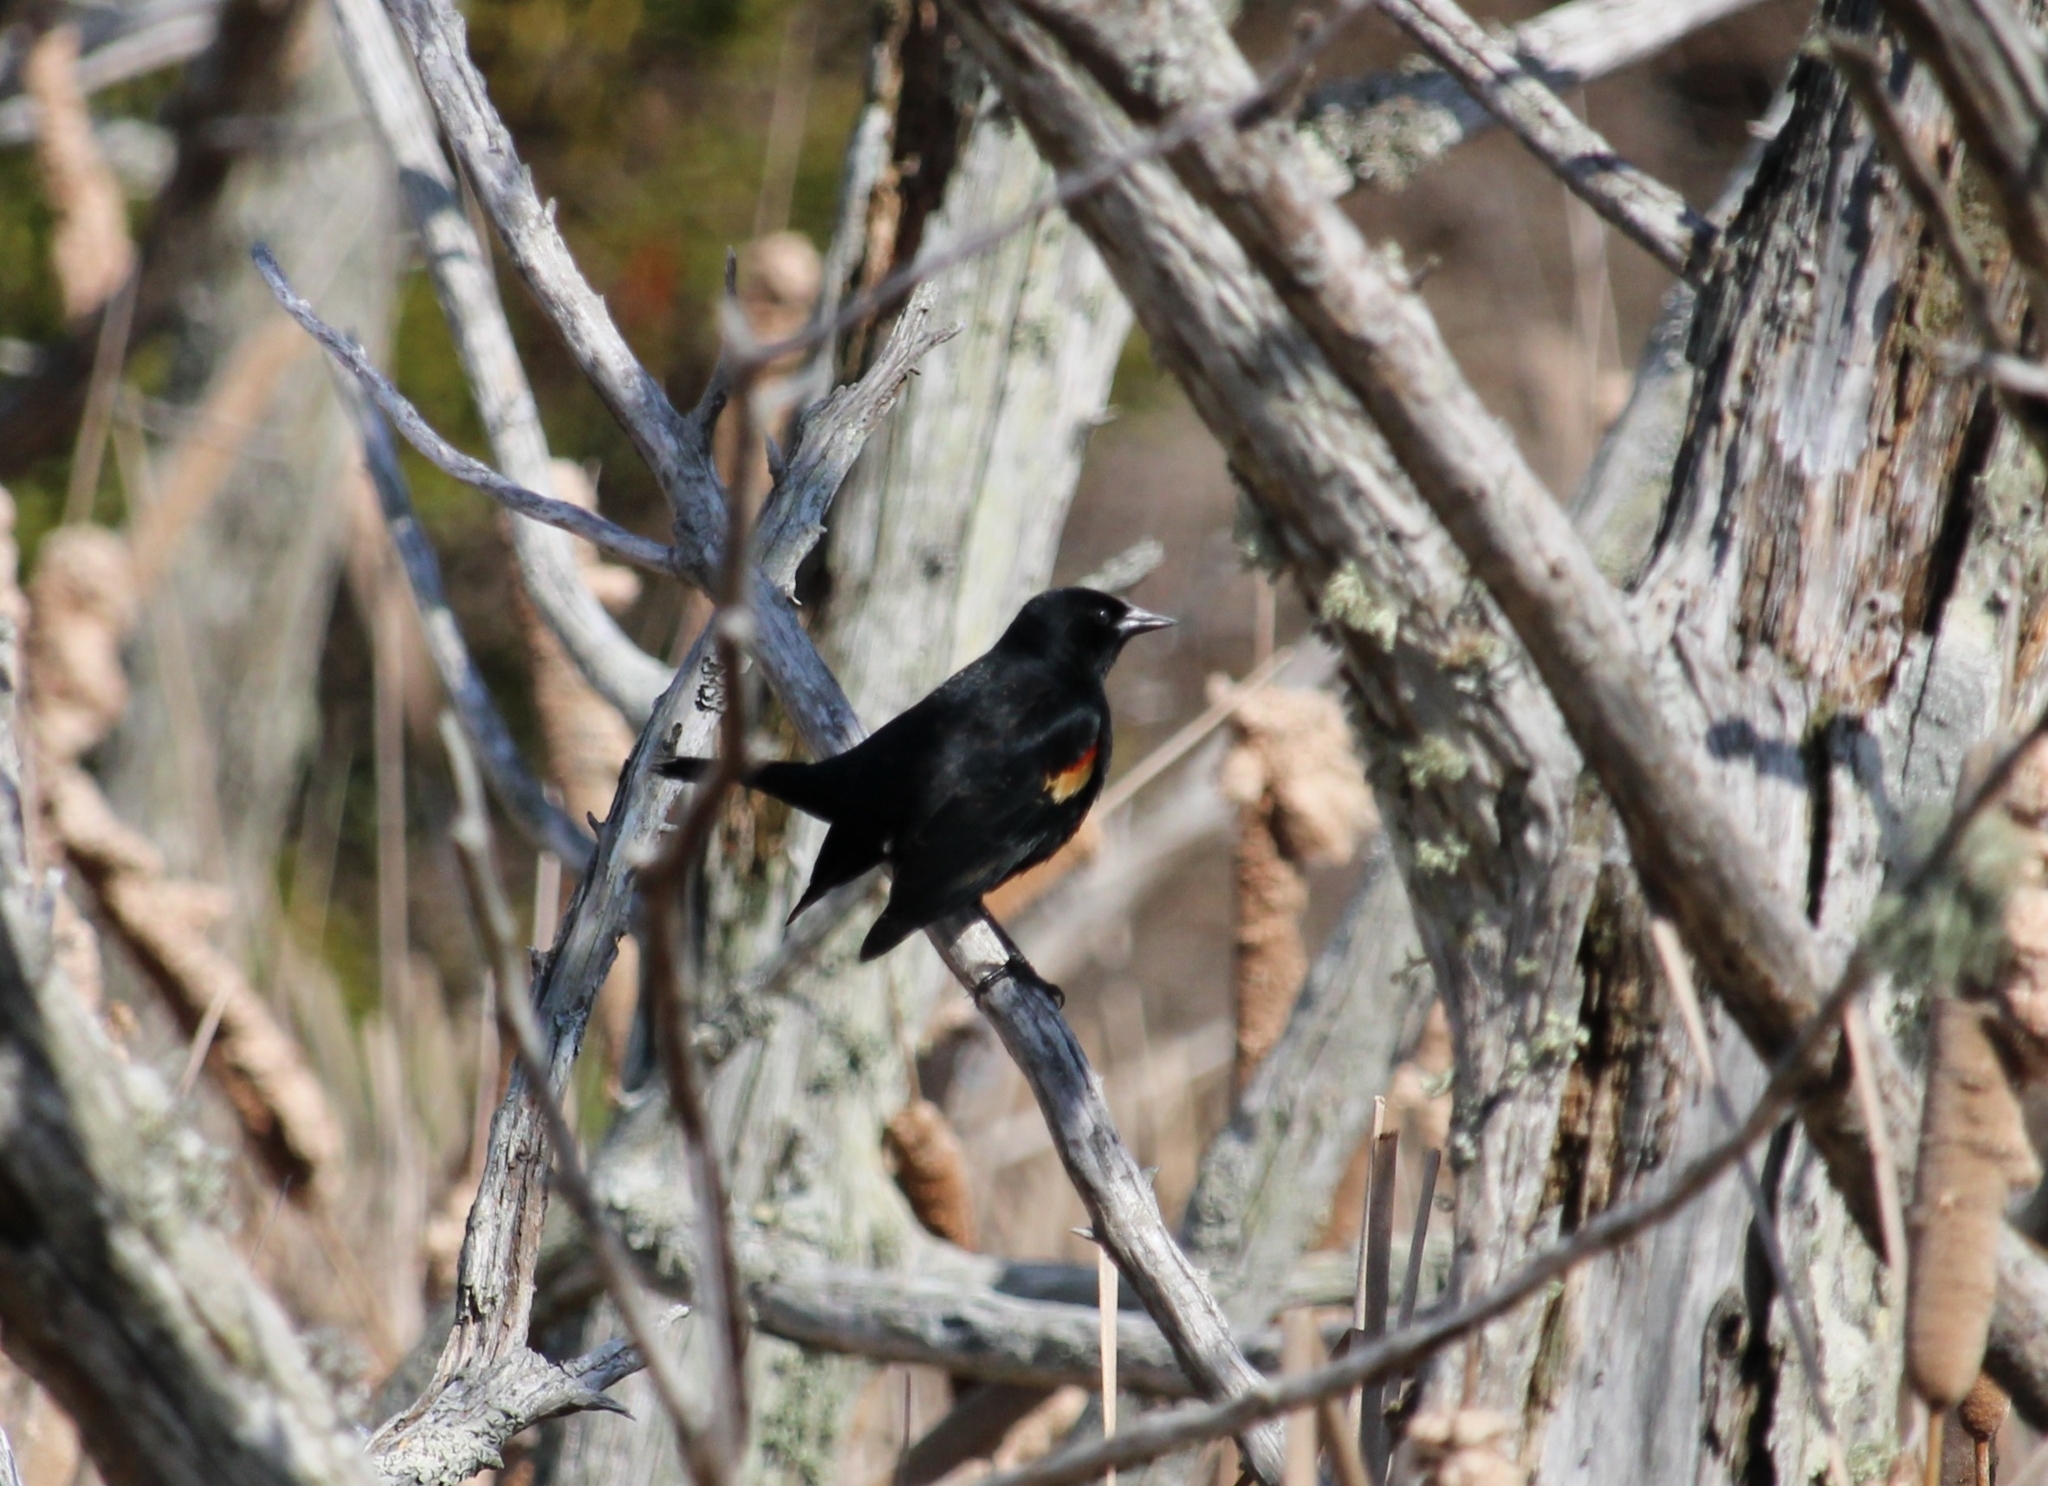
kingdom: Animalia
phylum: Chordata
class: Aves
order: Passeriformes
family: Icteridae
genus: Agelaius
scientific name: Agelaius phoeniceus
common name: Red-winged blackbird
